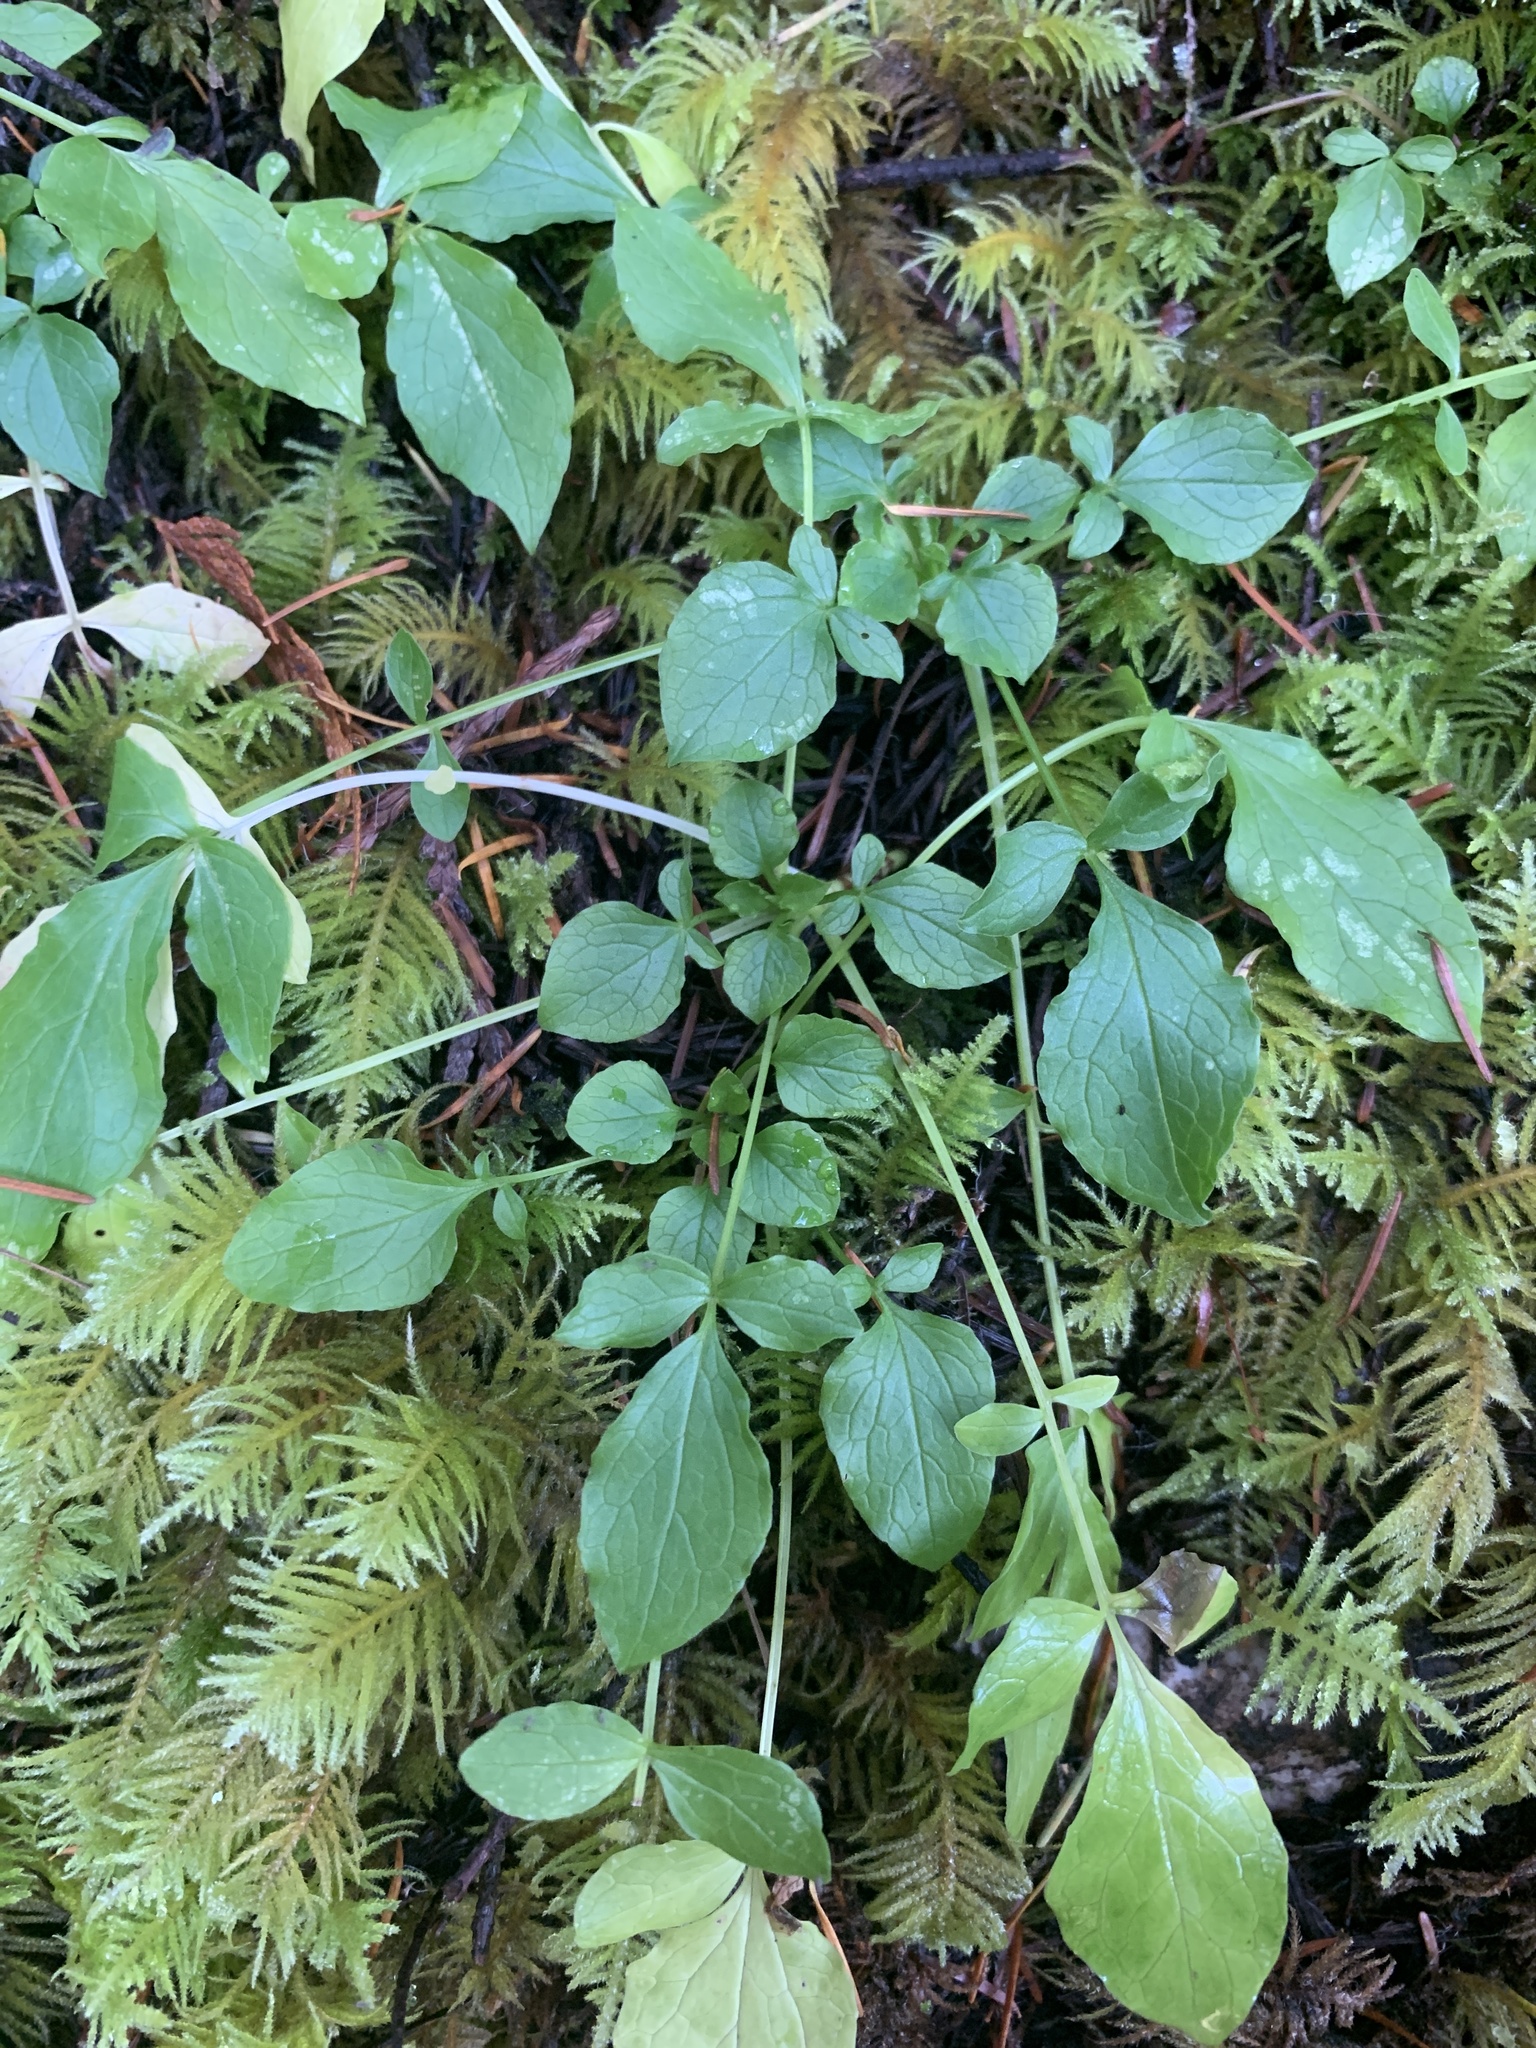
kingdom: Plantae
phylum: Tracheophyta
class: Magnoliopsida
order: Dipsacales
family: Caprifoliaceae
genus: Valeriana
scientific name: Valeriana sitchensis
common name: Pacific valerian
